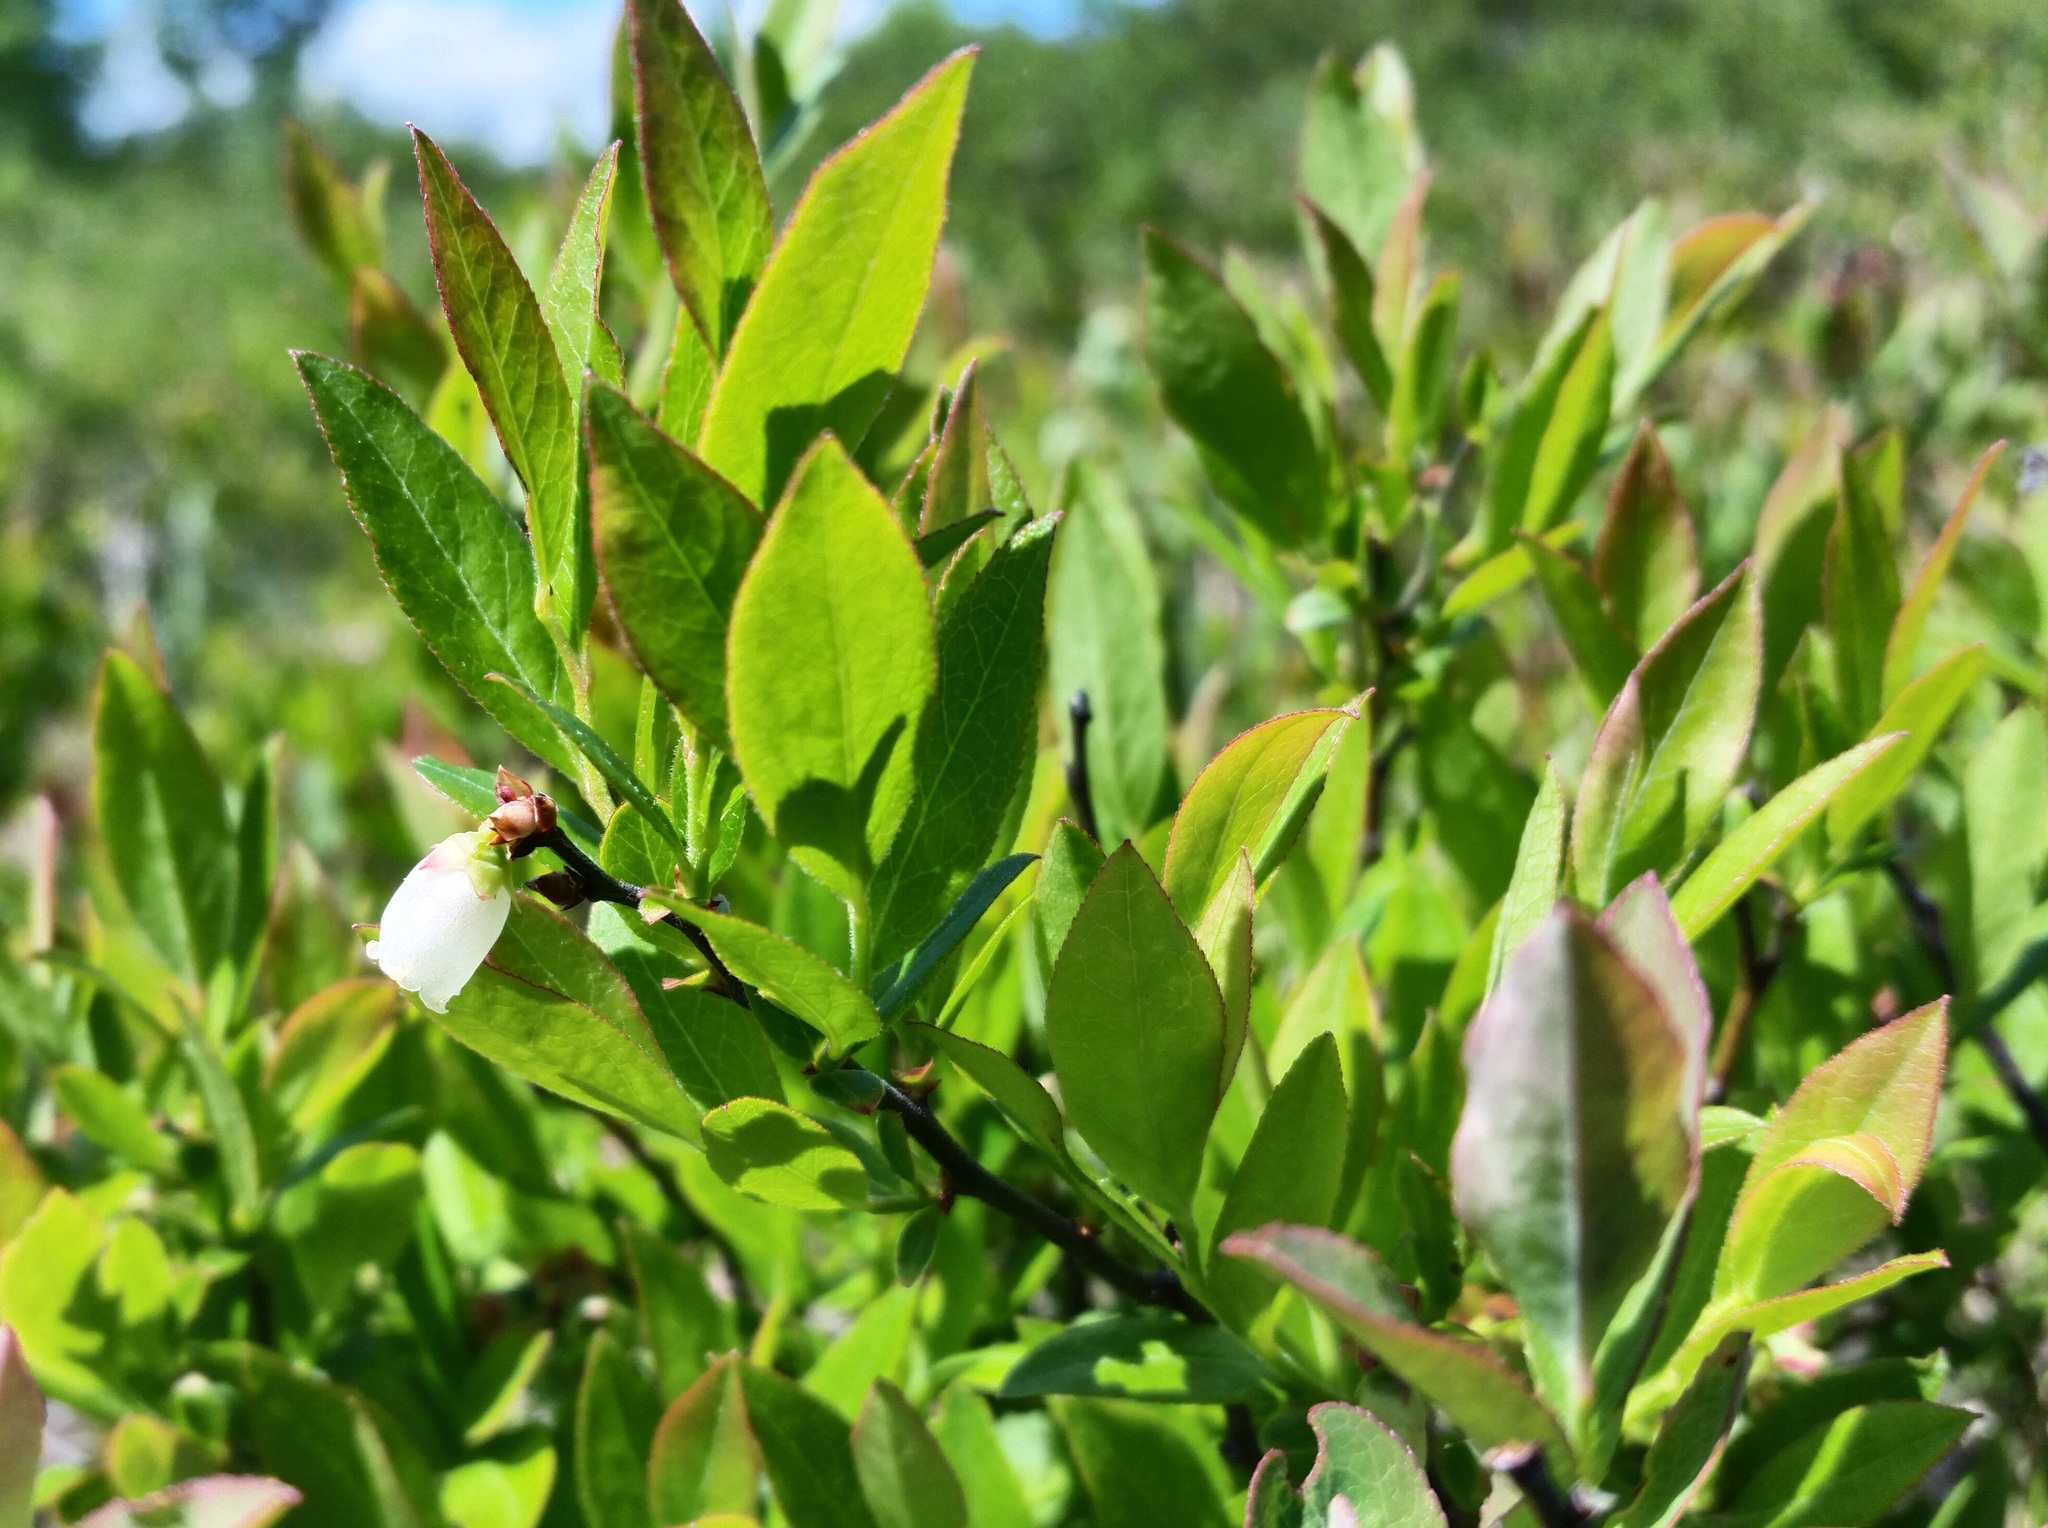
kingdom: Plantae
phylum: Tracheophyta
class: Magnoliopsida
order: Ericales
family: Ericaceae
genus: Vaccinium
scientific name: Vaccinium angustifolium
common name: Early lowbush blueberry
